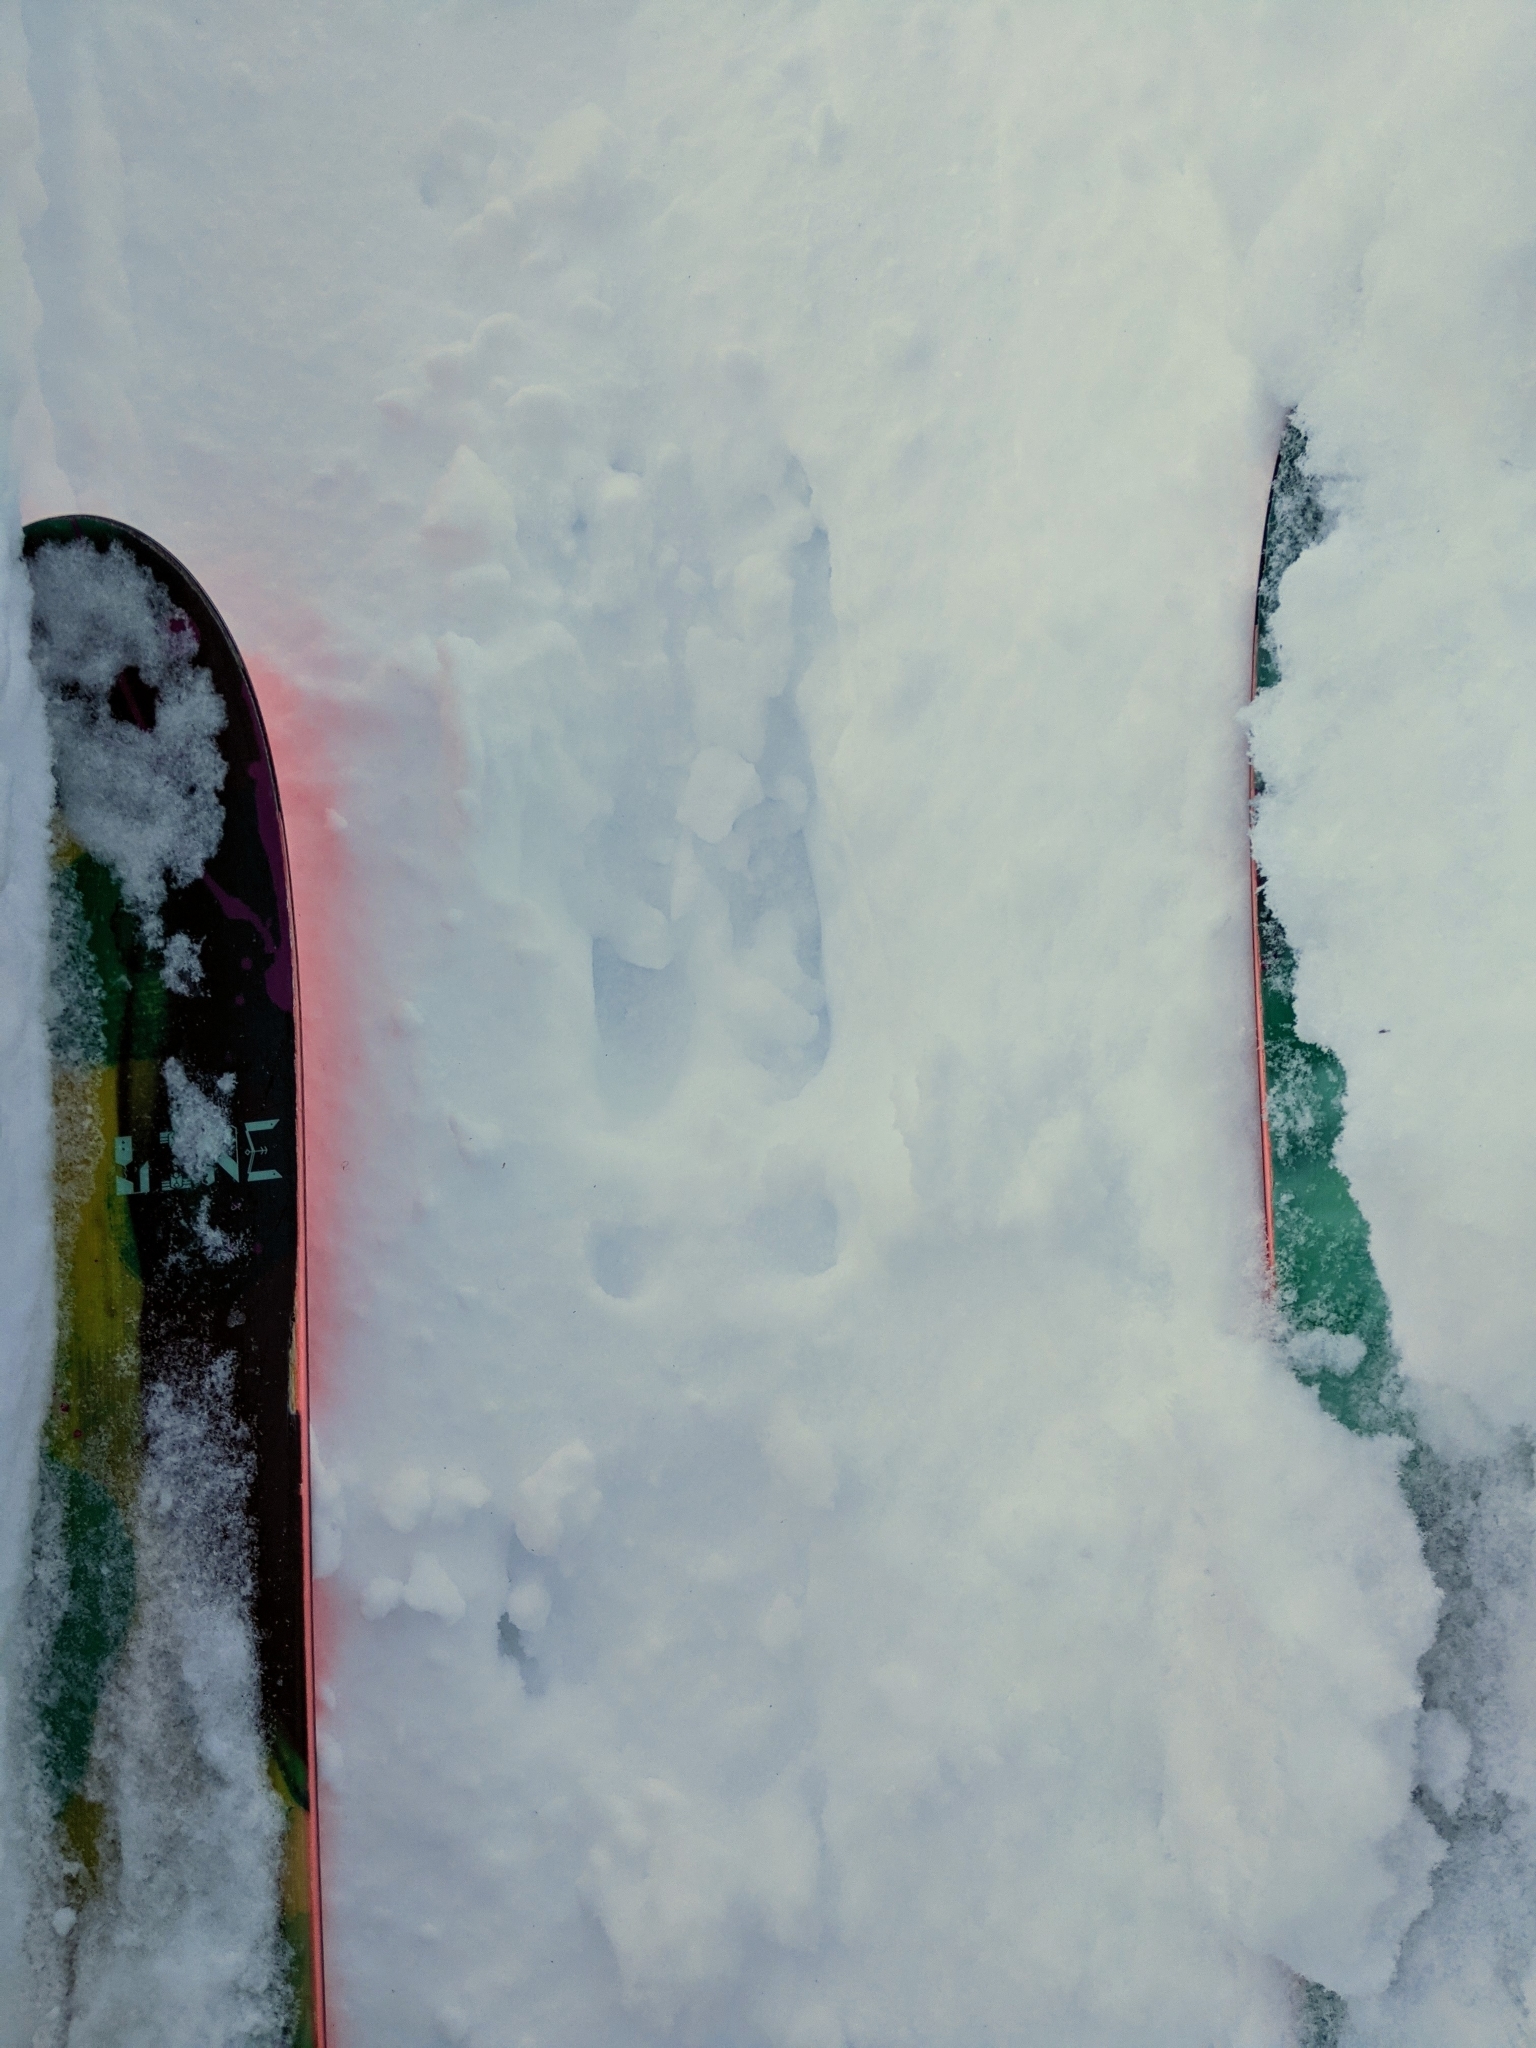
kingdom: Animalia
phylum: Chordata
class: Mammalia
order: Artiodactyla
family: Cervidae
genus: Alces
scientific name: Alces alces
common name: Moose
